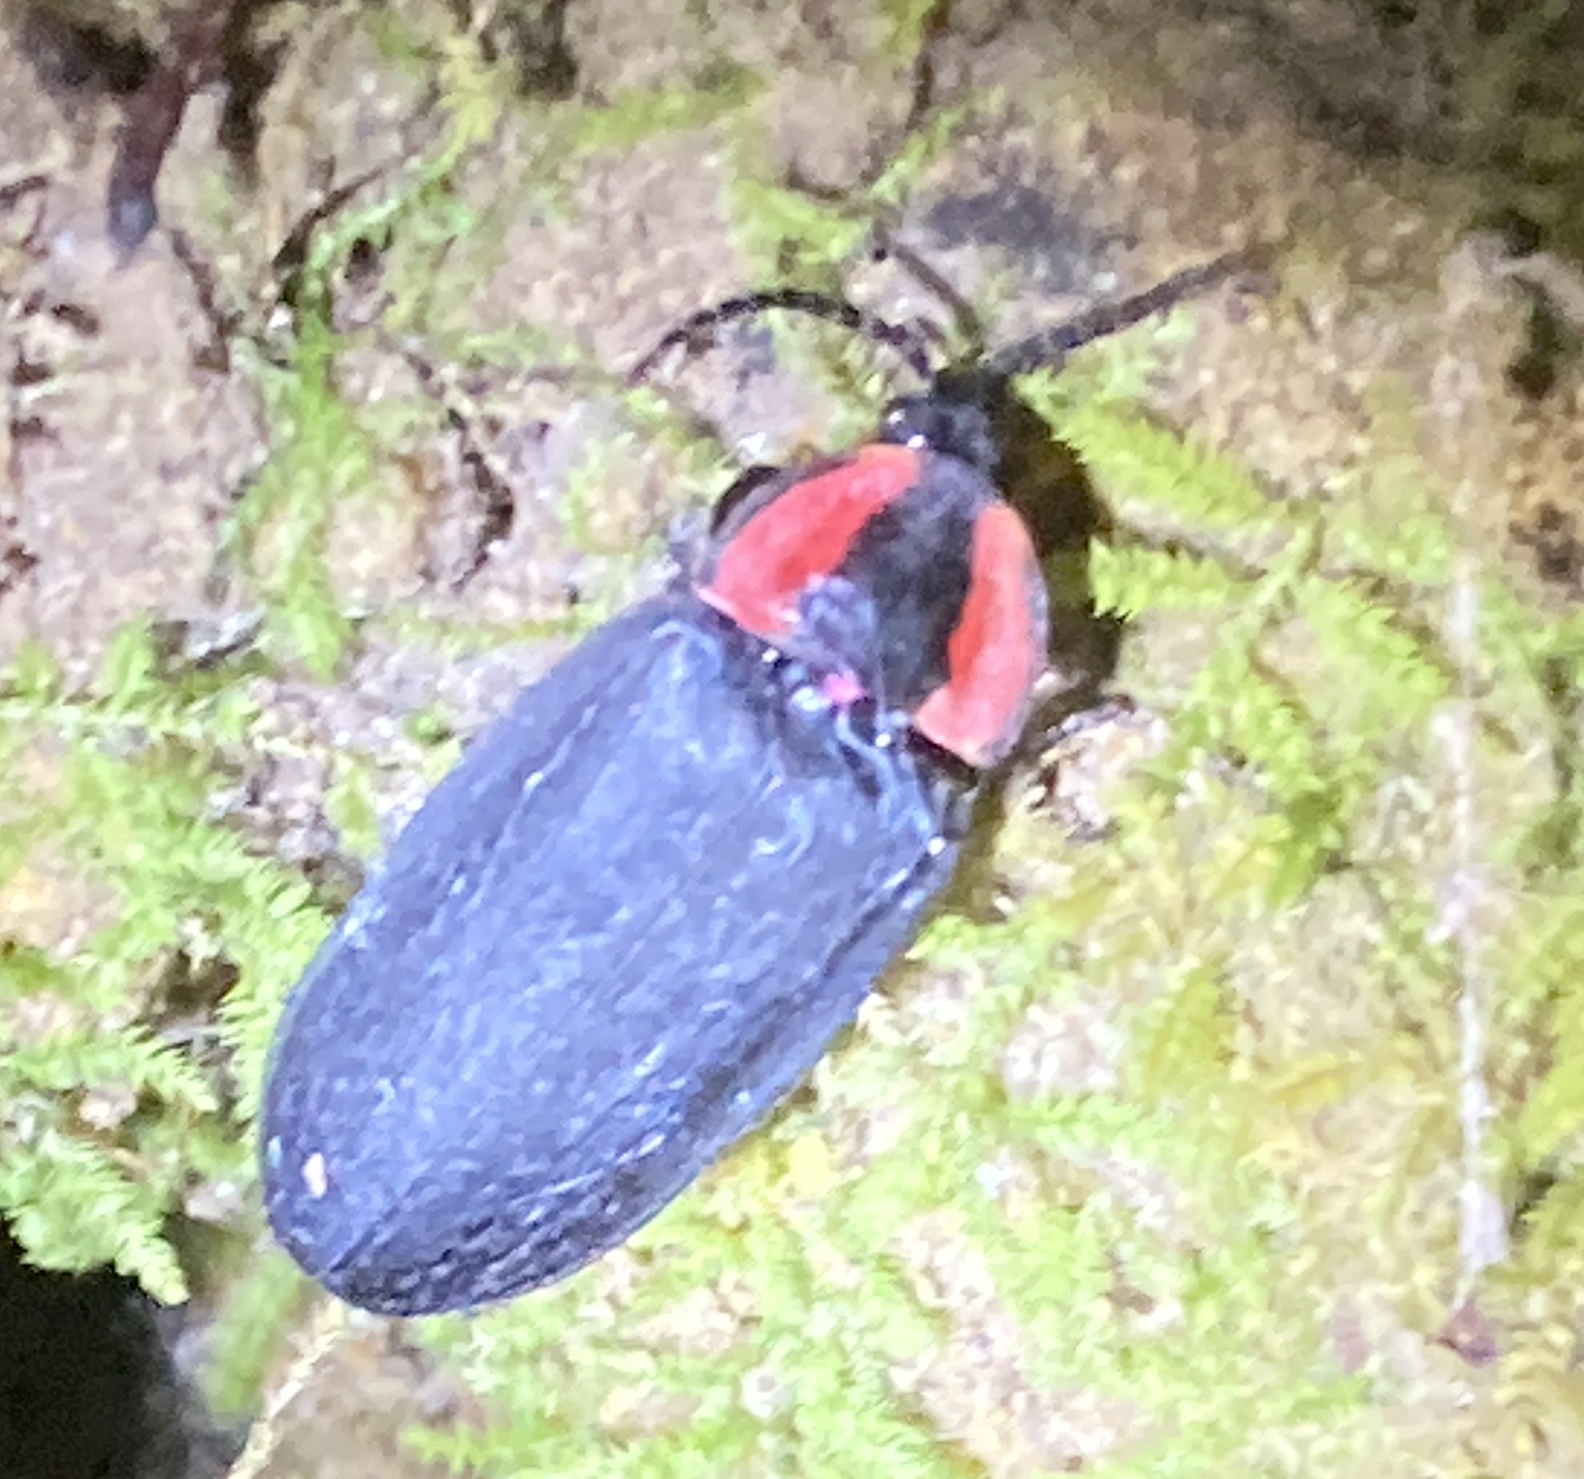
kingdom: Animalia
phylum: Arthropoda
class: Insecta
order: Coleoptera
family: Lampyridae
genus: Photinus
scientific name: Photinus californica
